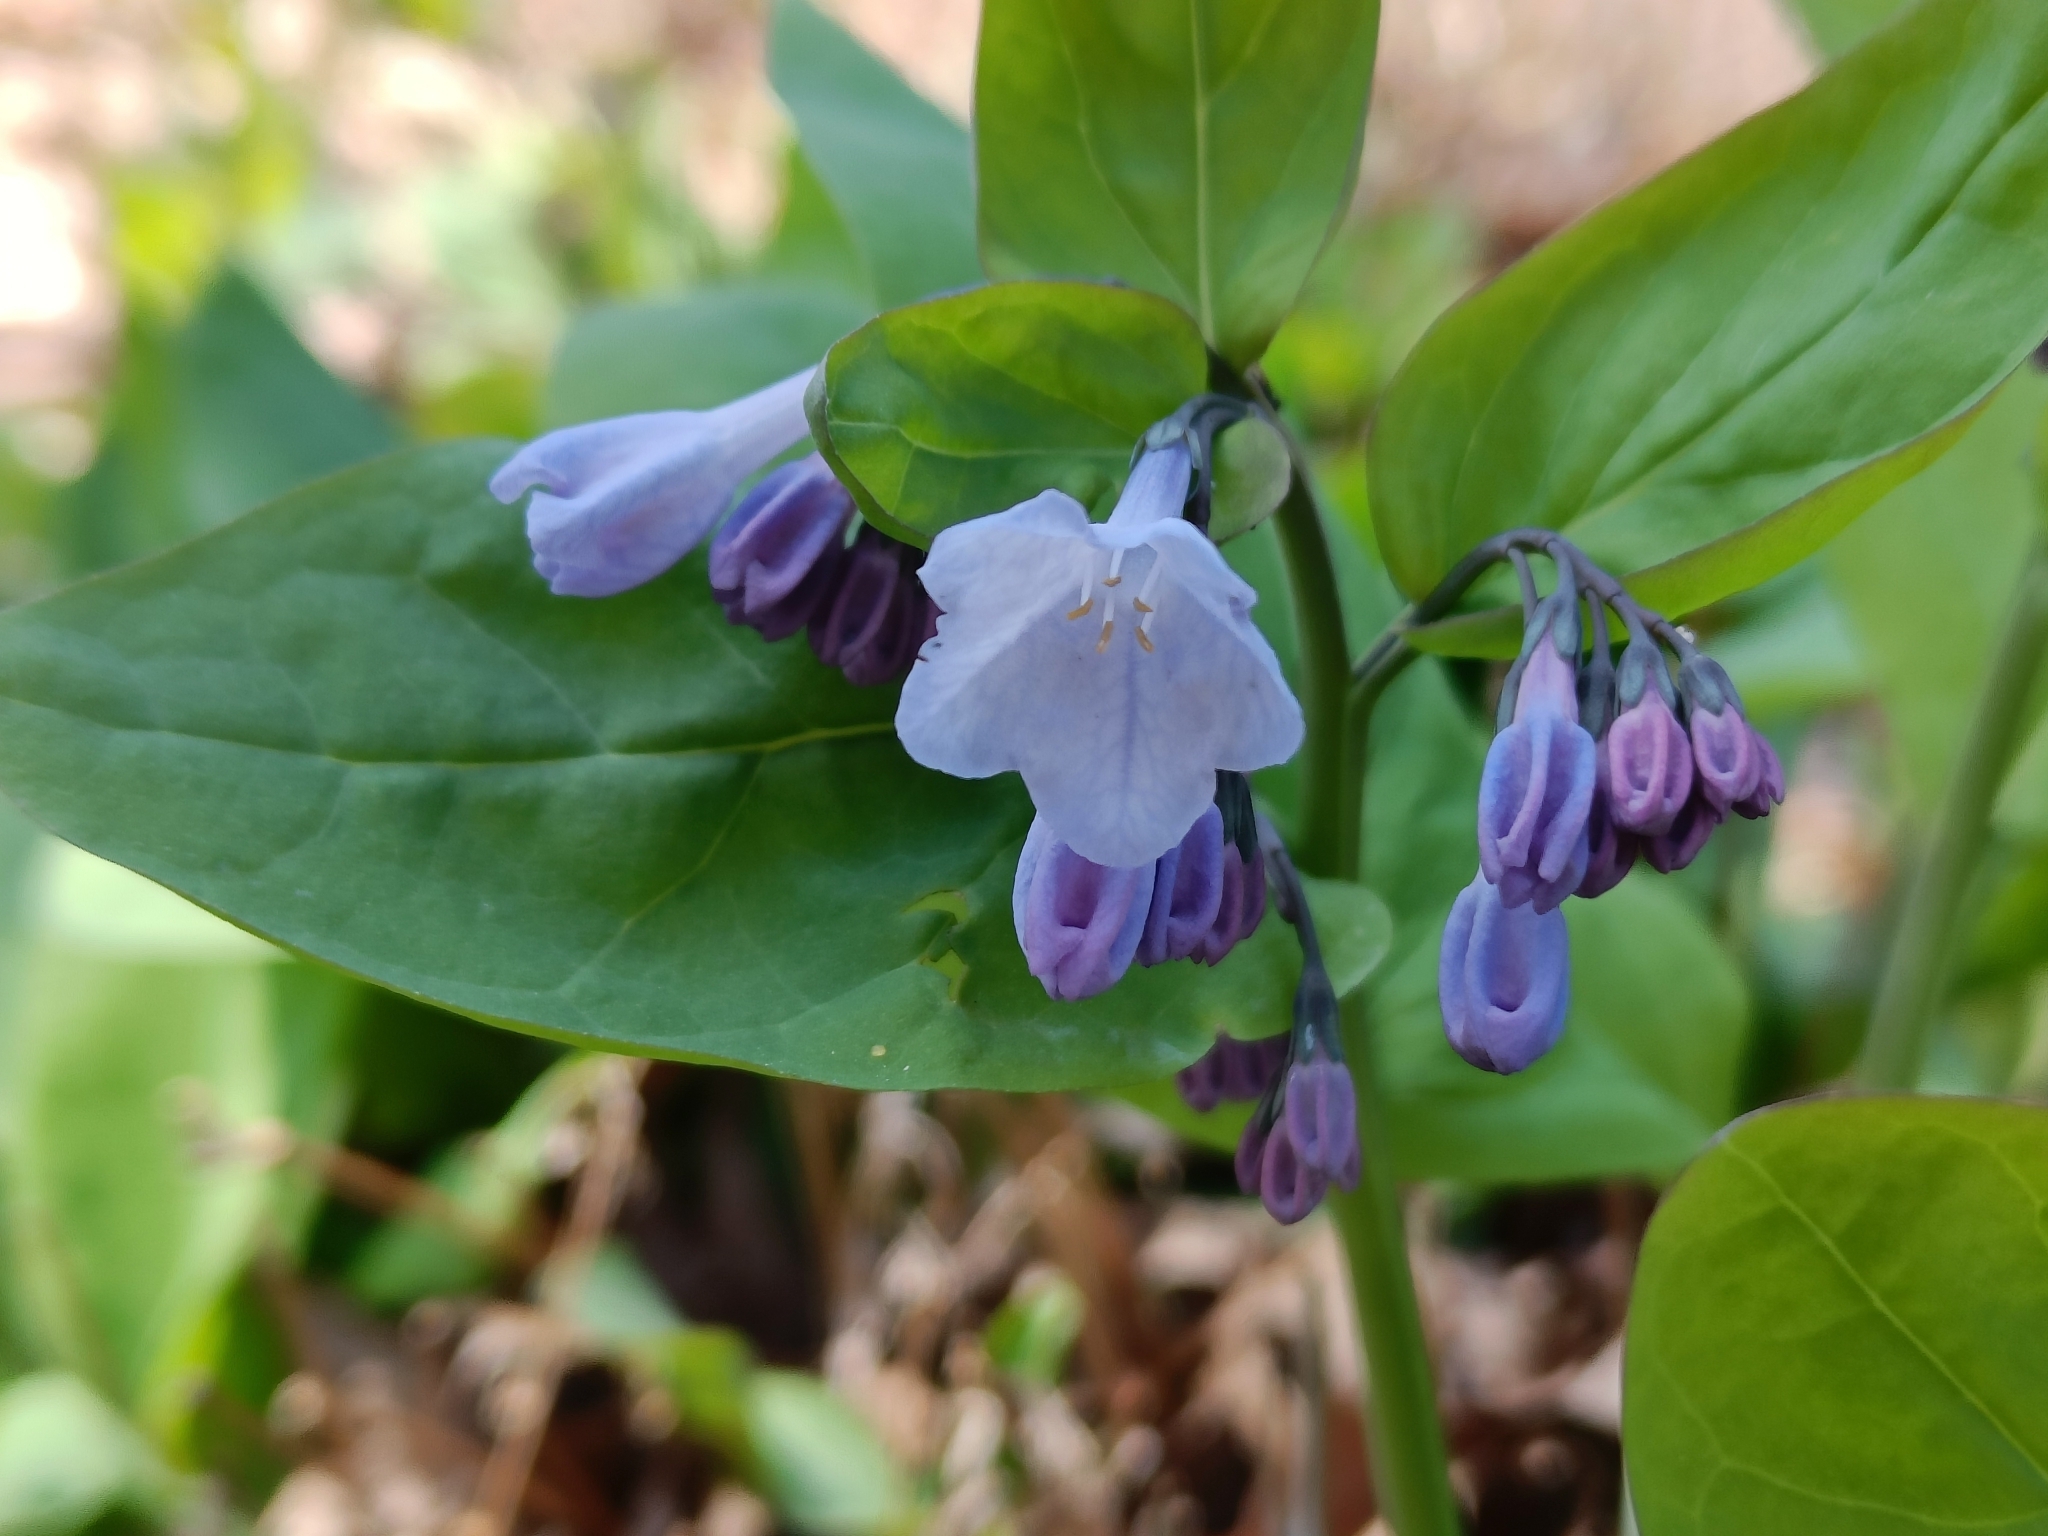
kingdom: Plantae
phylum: Tracheophyta
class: Magnoliopsida
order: Boraginales
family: Boraginaceae
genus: Mertensia
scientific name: Mertensia virginica
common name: Virginia bluebells
